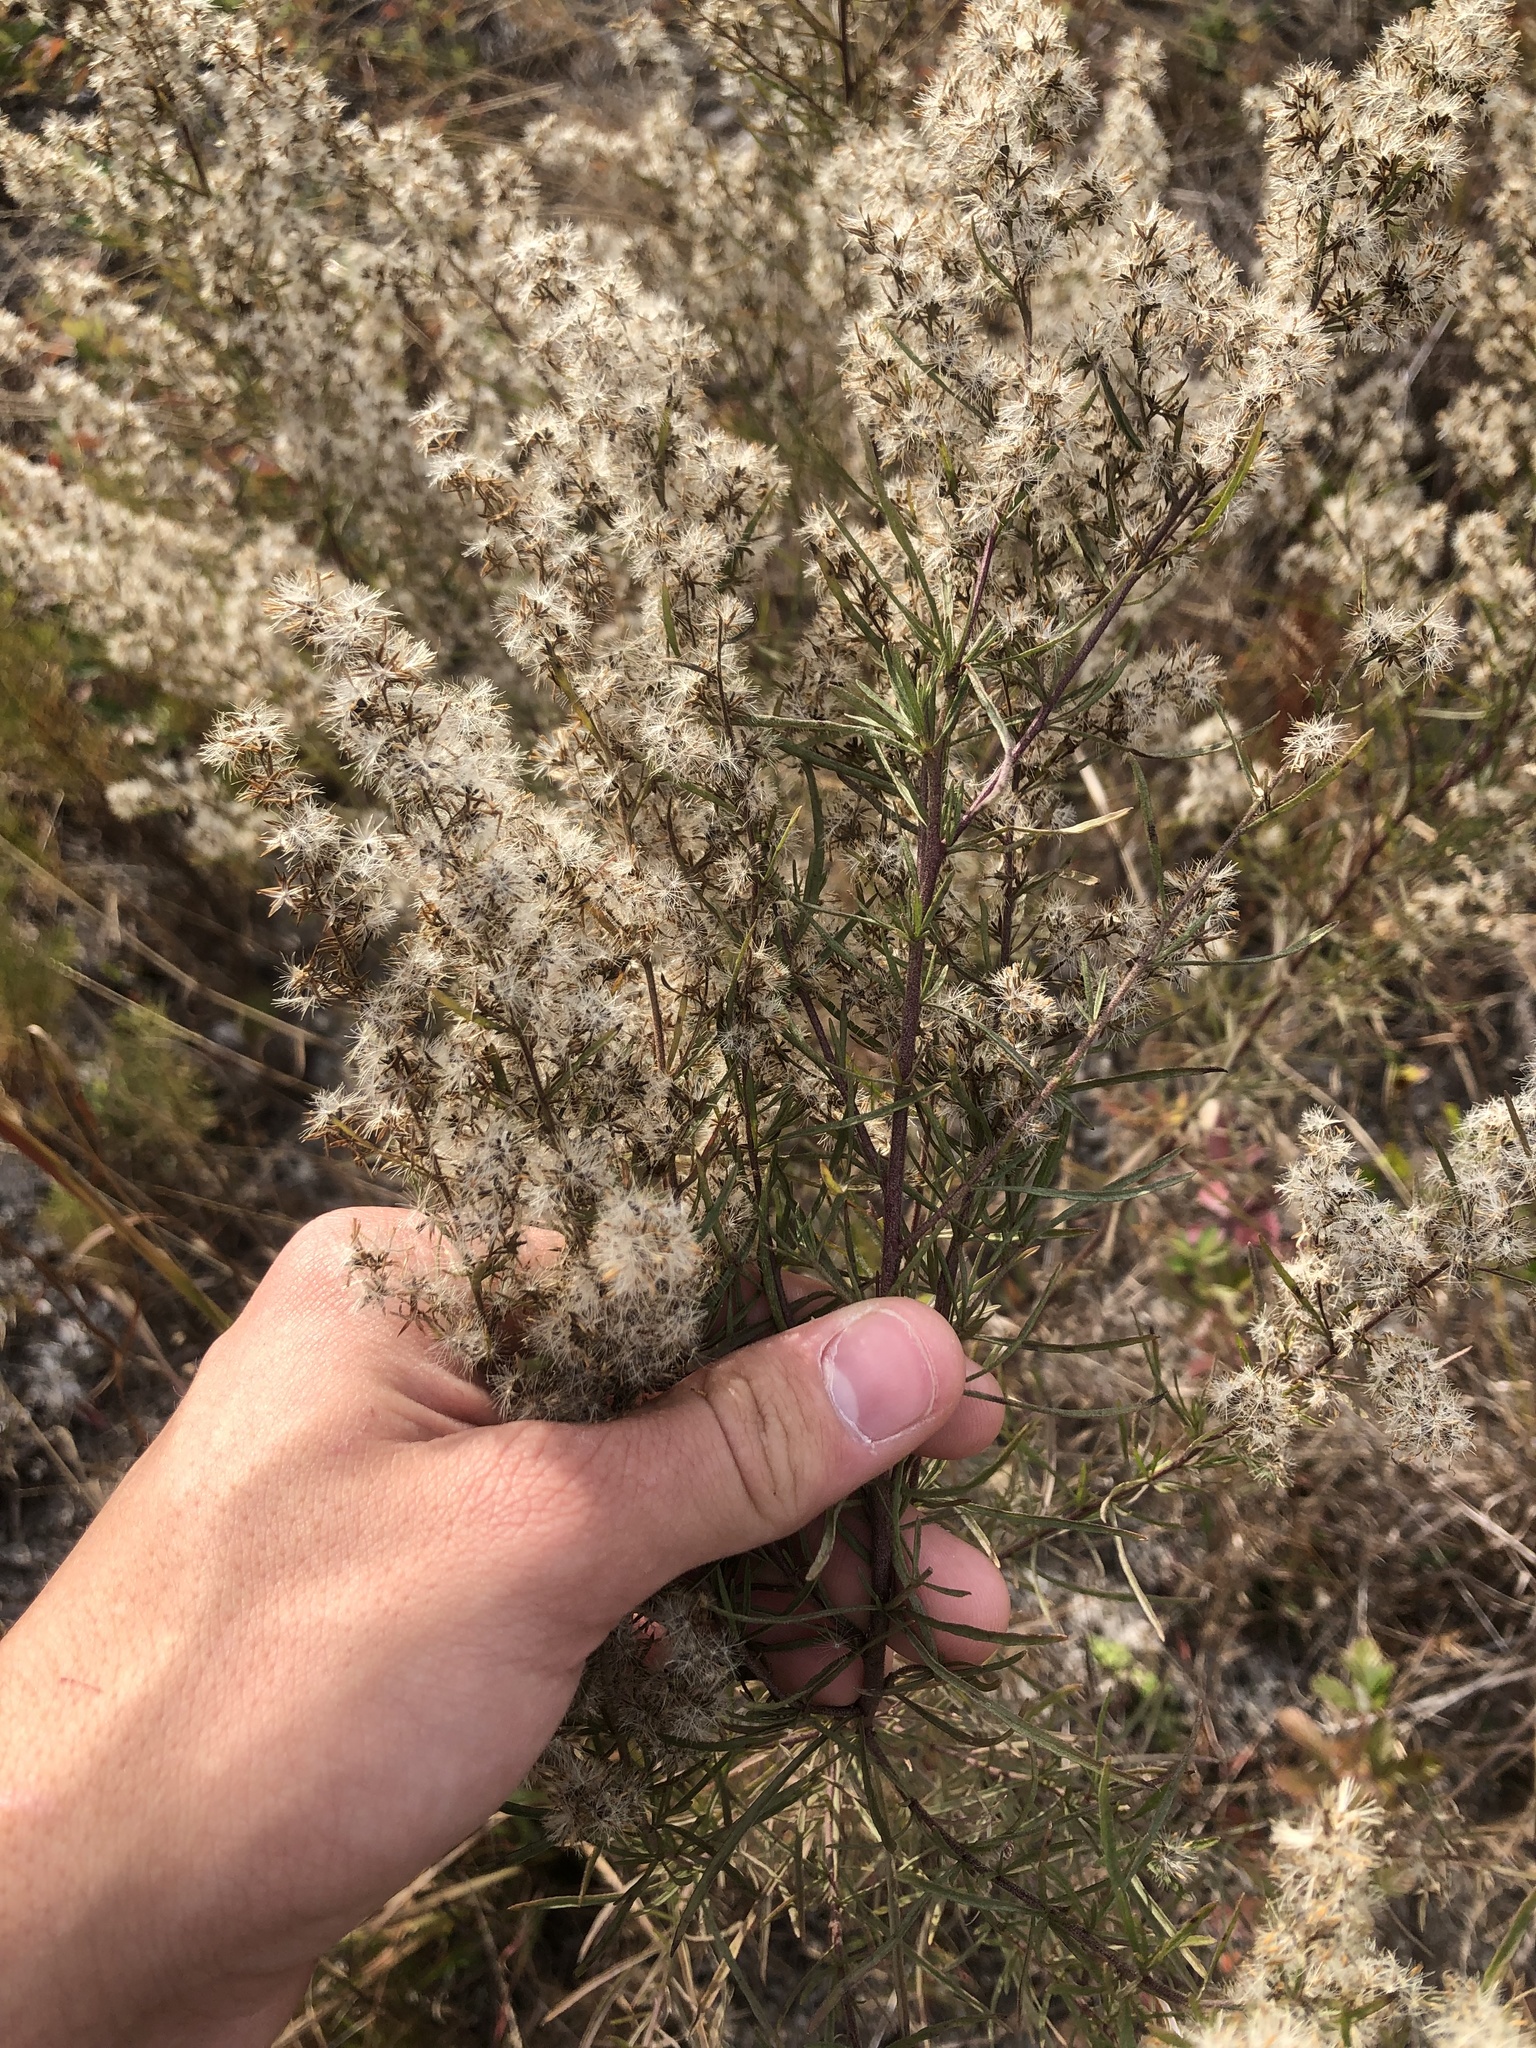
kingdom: Plantae
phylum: Tracheophyta
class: Magnoliopsida
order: Asterales
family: Asteraceae
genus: Eupatorium
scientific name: Eupatorium compositifolium
